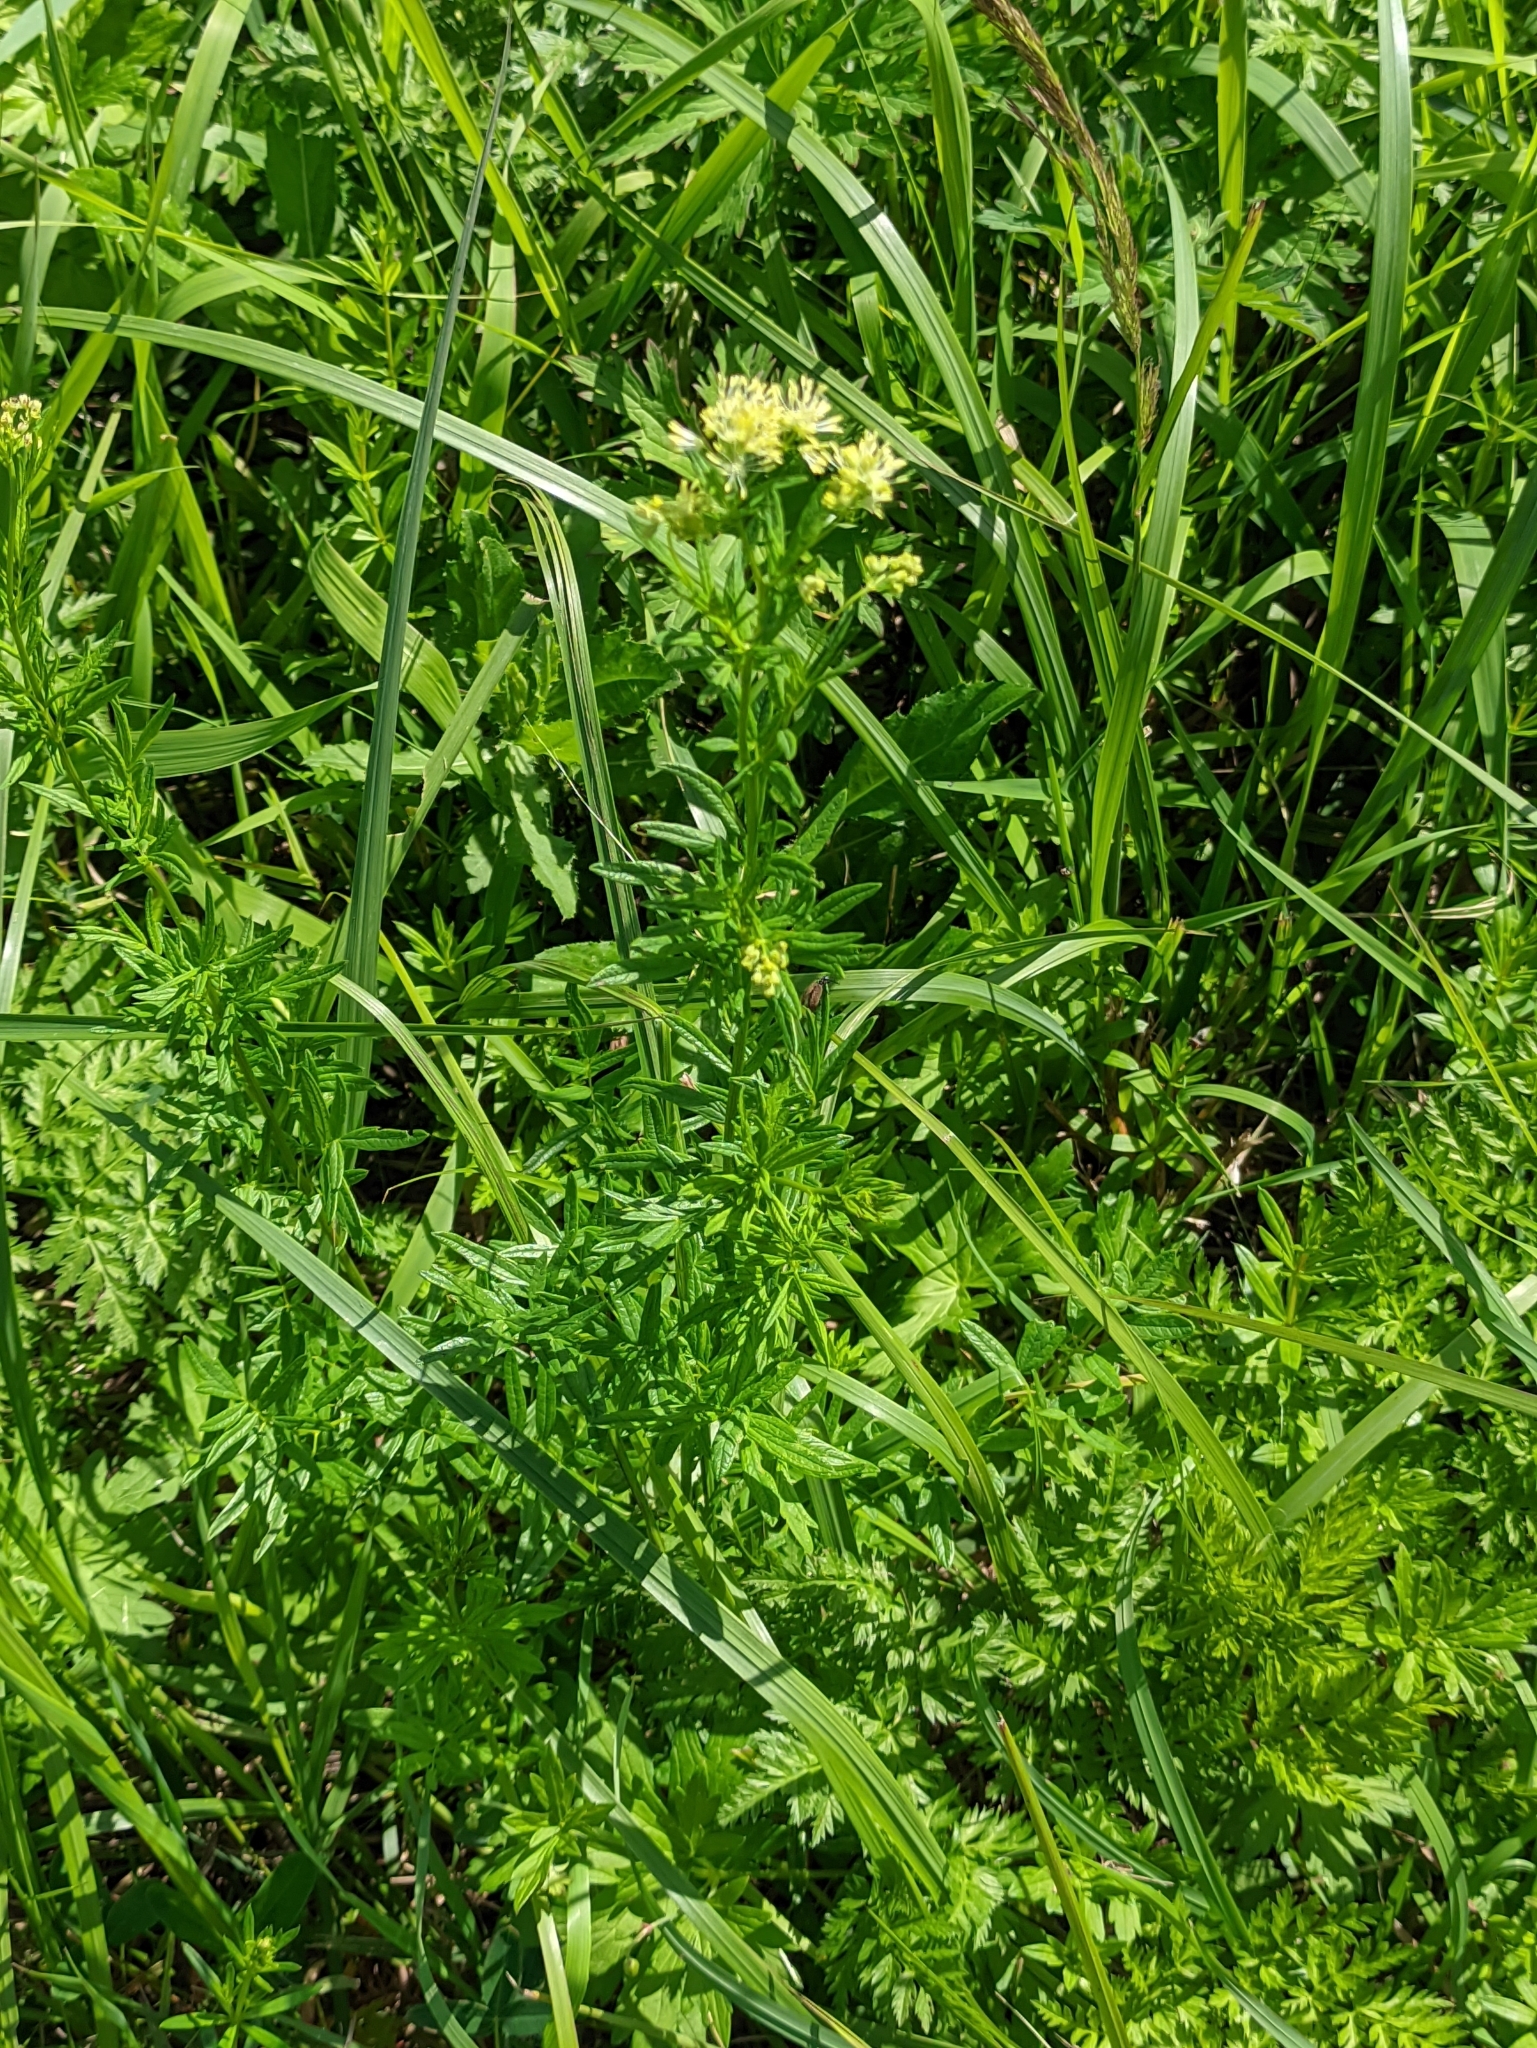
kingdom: Plantae
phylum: Tracheophyta
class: Magnoliopsida
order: Ranunculales
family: Ranunculaceae
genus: Thalictrum
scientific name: Thalictrum lucidum
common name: Shining meadow-rue
